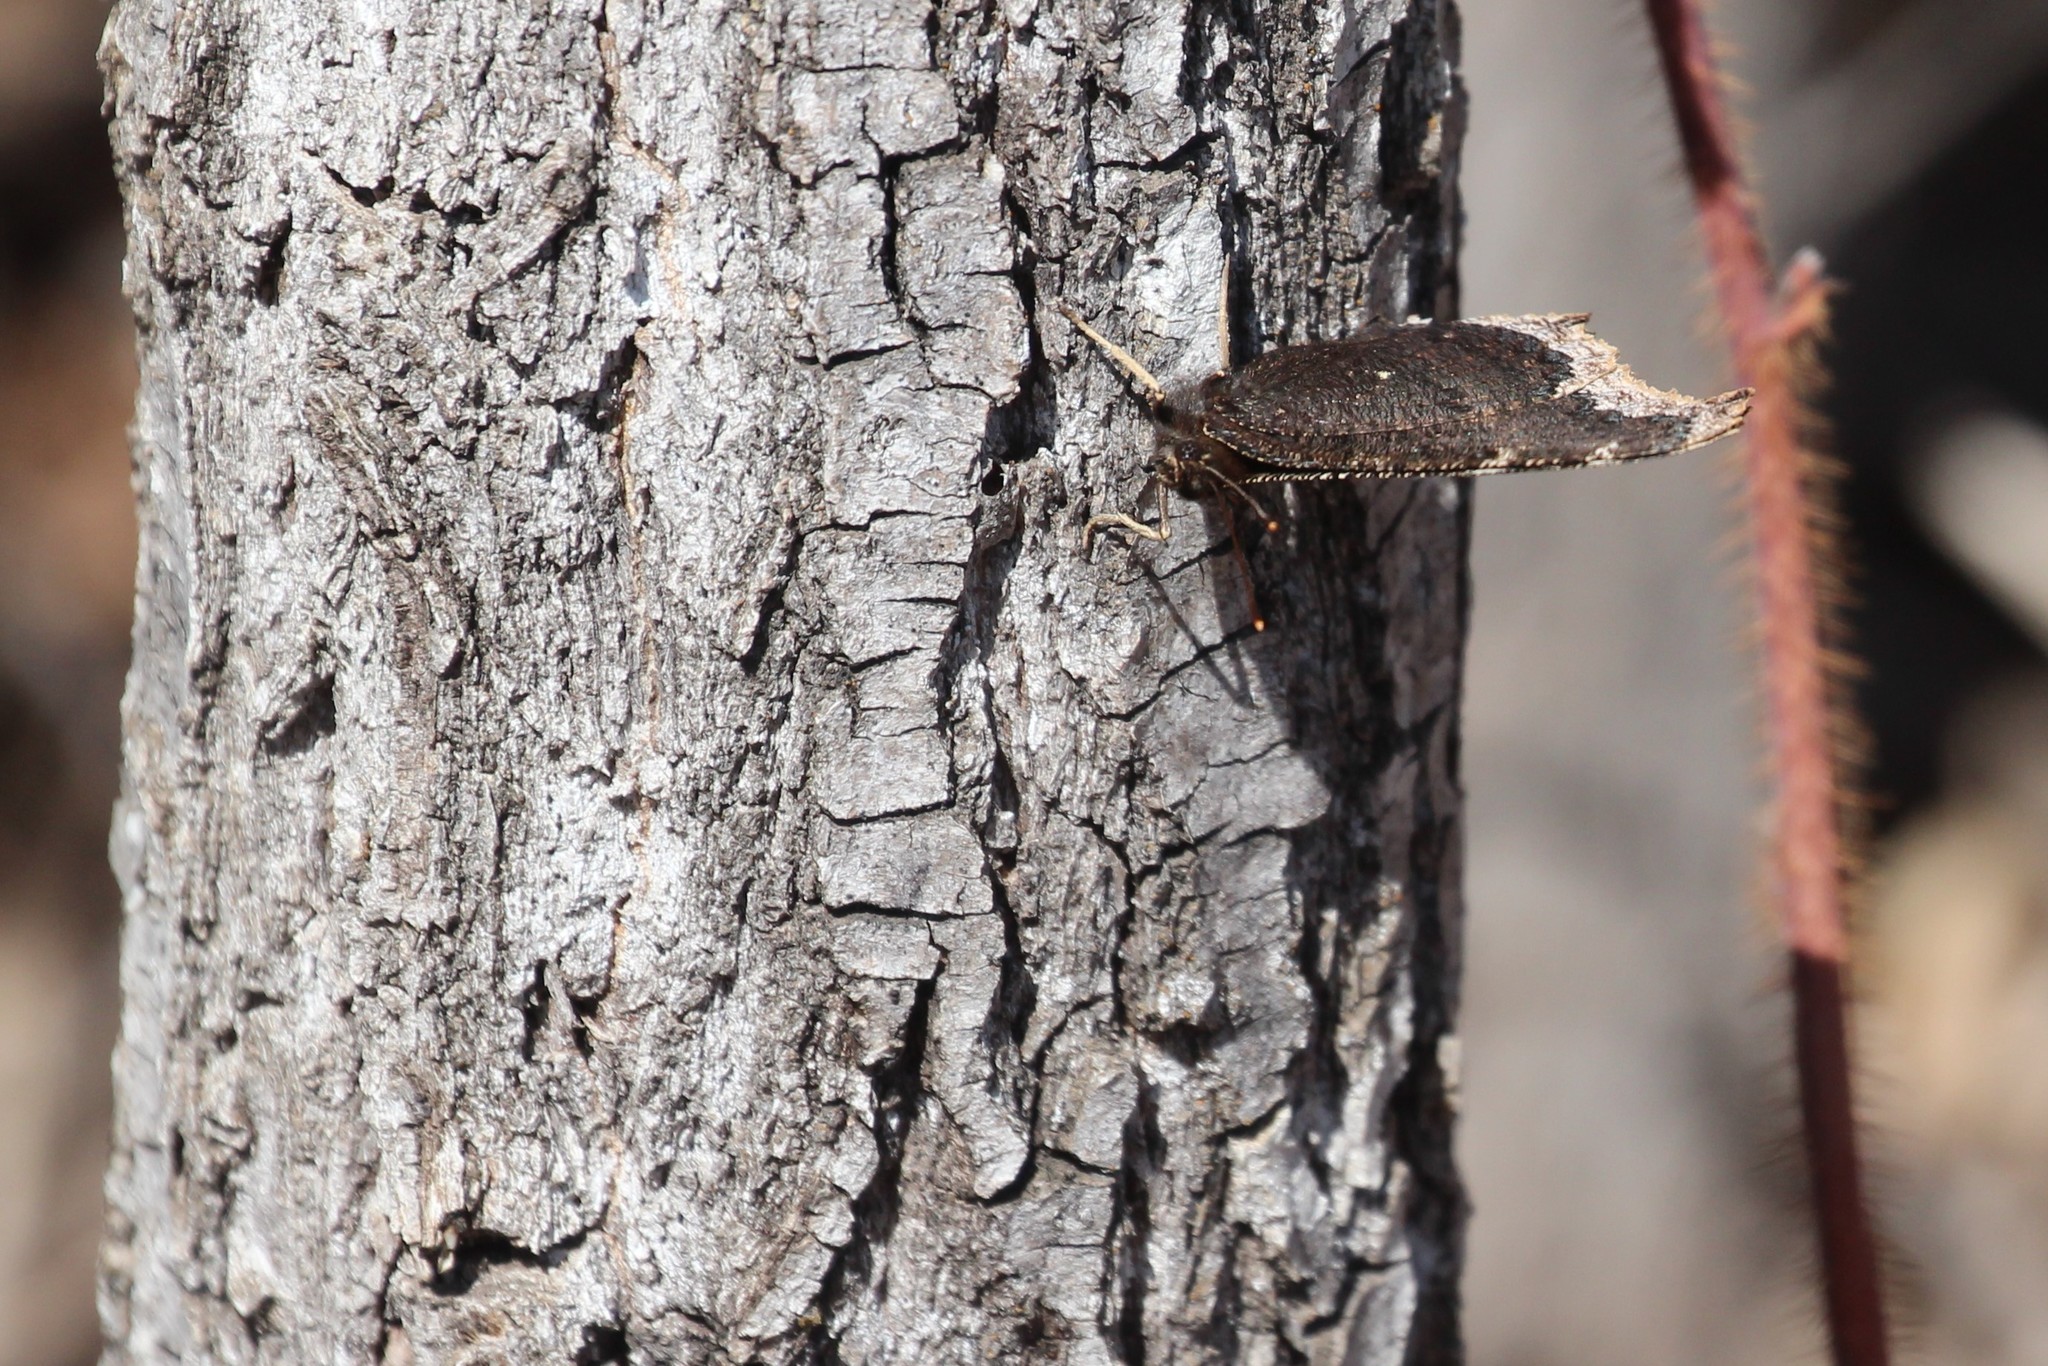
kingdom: Animalia
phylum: Arthropoda
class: Insecta
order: Lepidoptera
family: Nymphalidae
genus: Nymphalis
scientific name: Nymphalis antiopa
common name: Camberwell beauty
